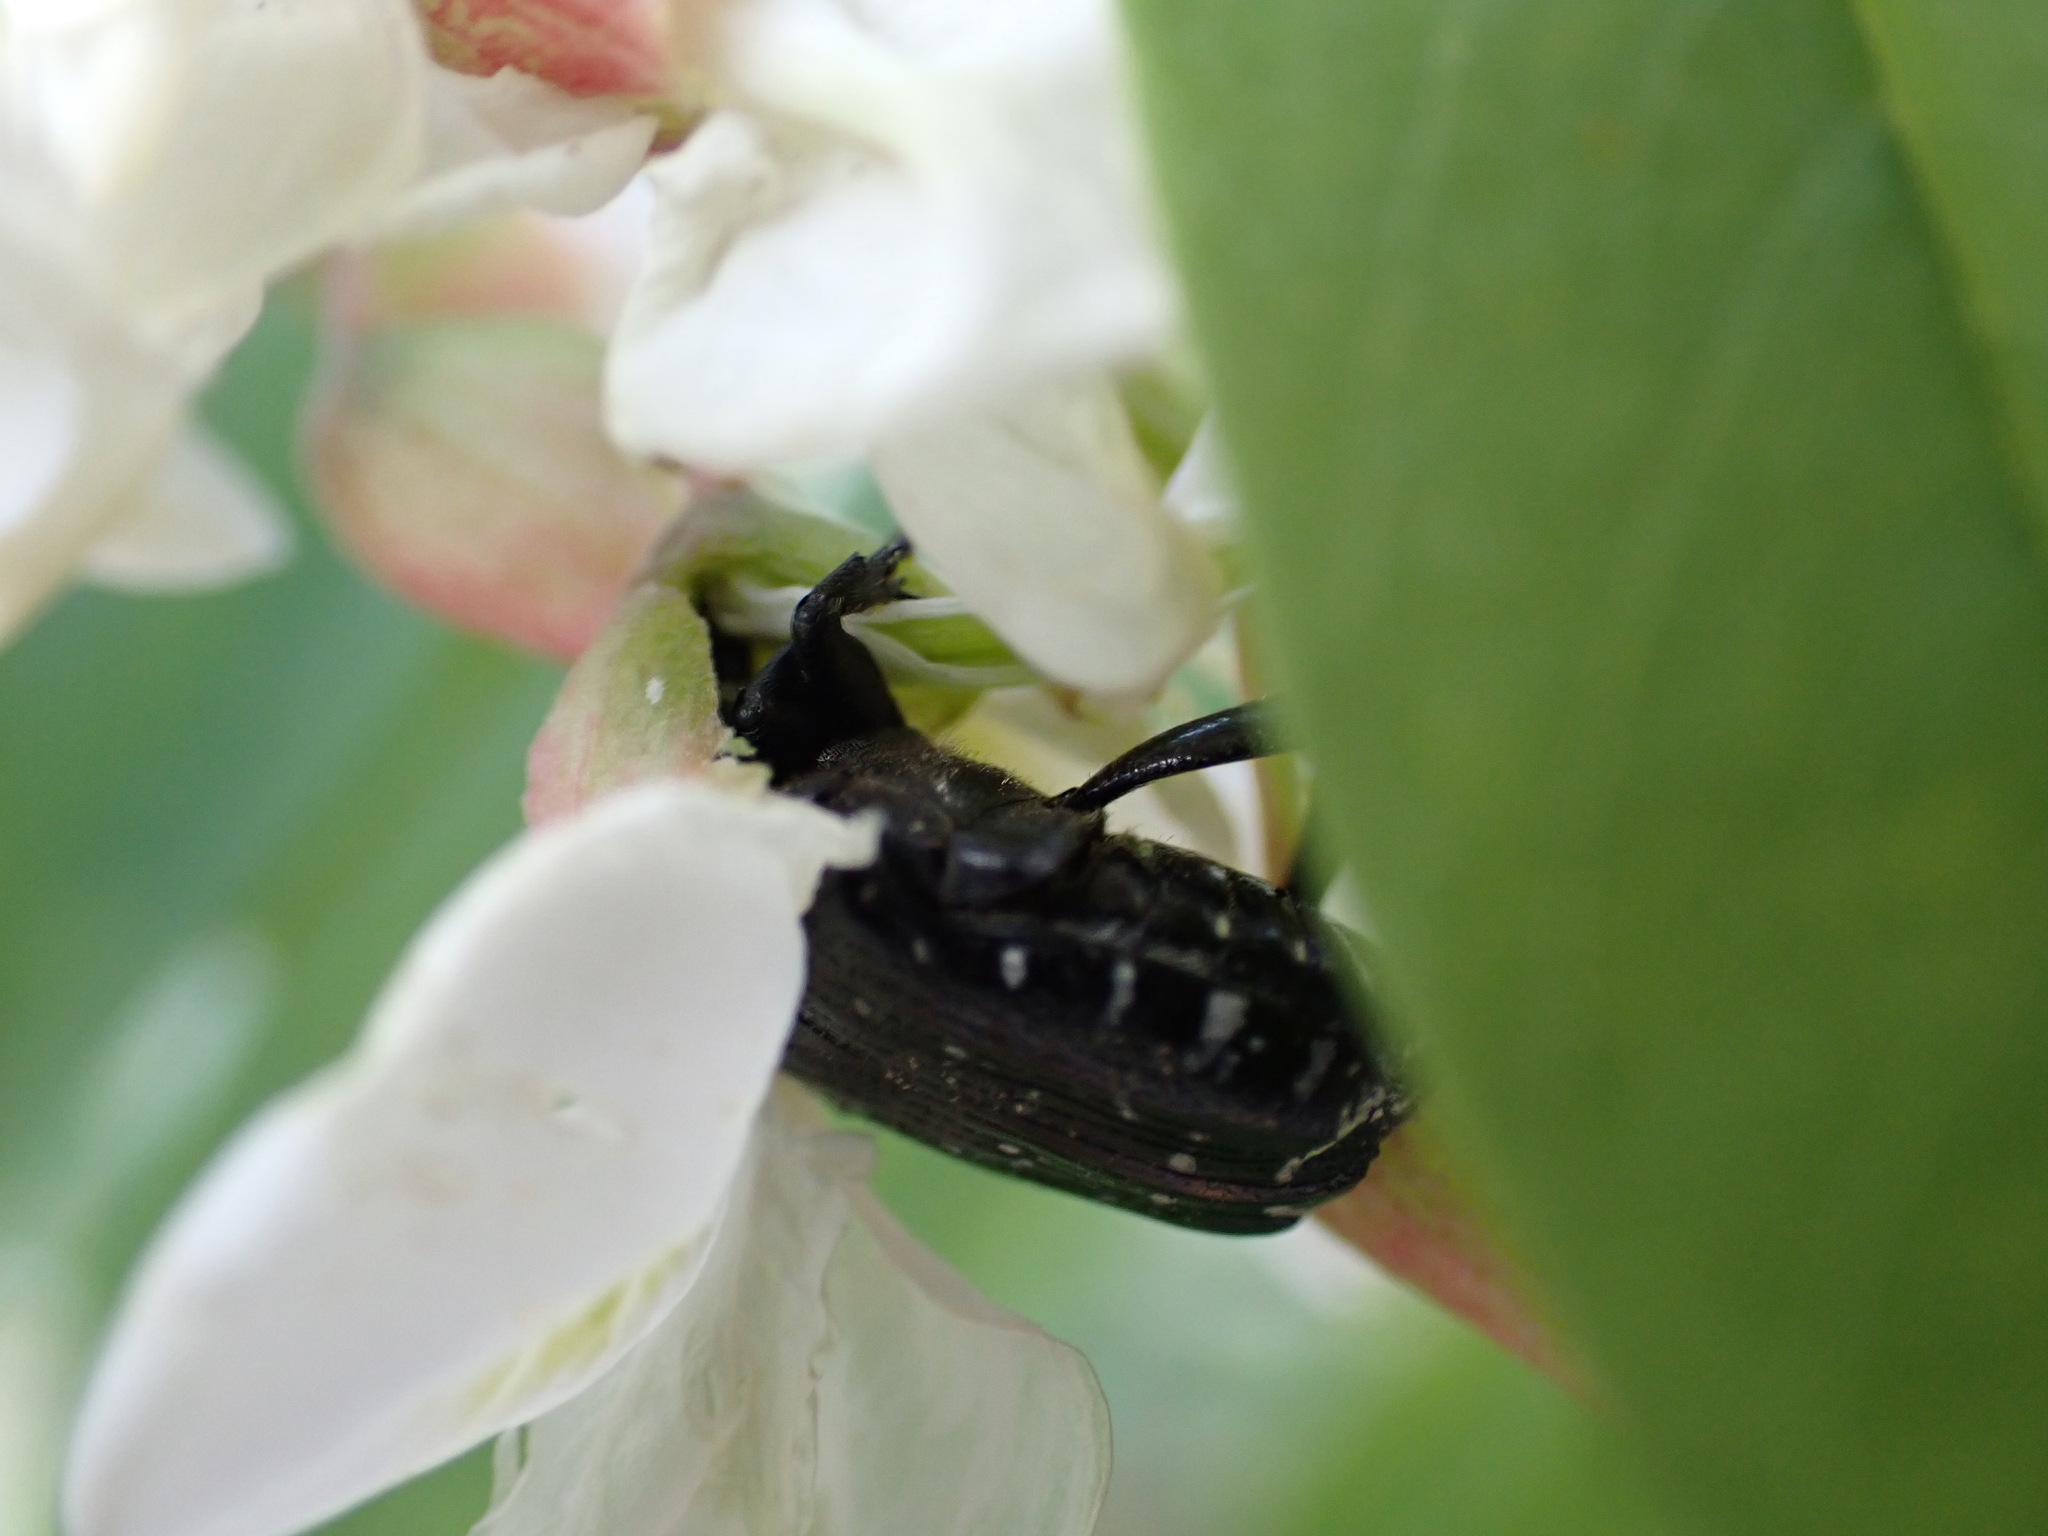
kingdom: Animalia
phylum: Arthropoda
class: Insecta
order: Coleoptera
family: Scarabaeidae
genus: Oxythyrea
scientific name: Oxythyrea funesta
